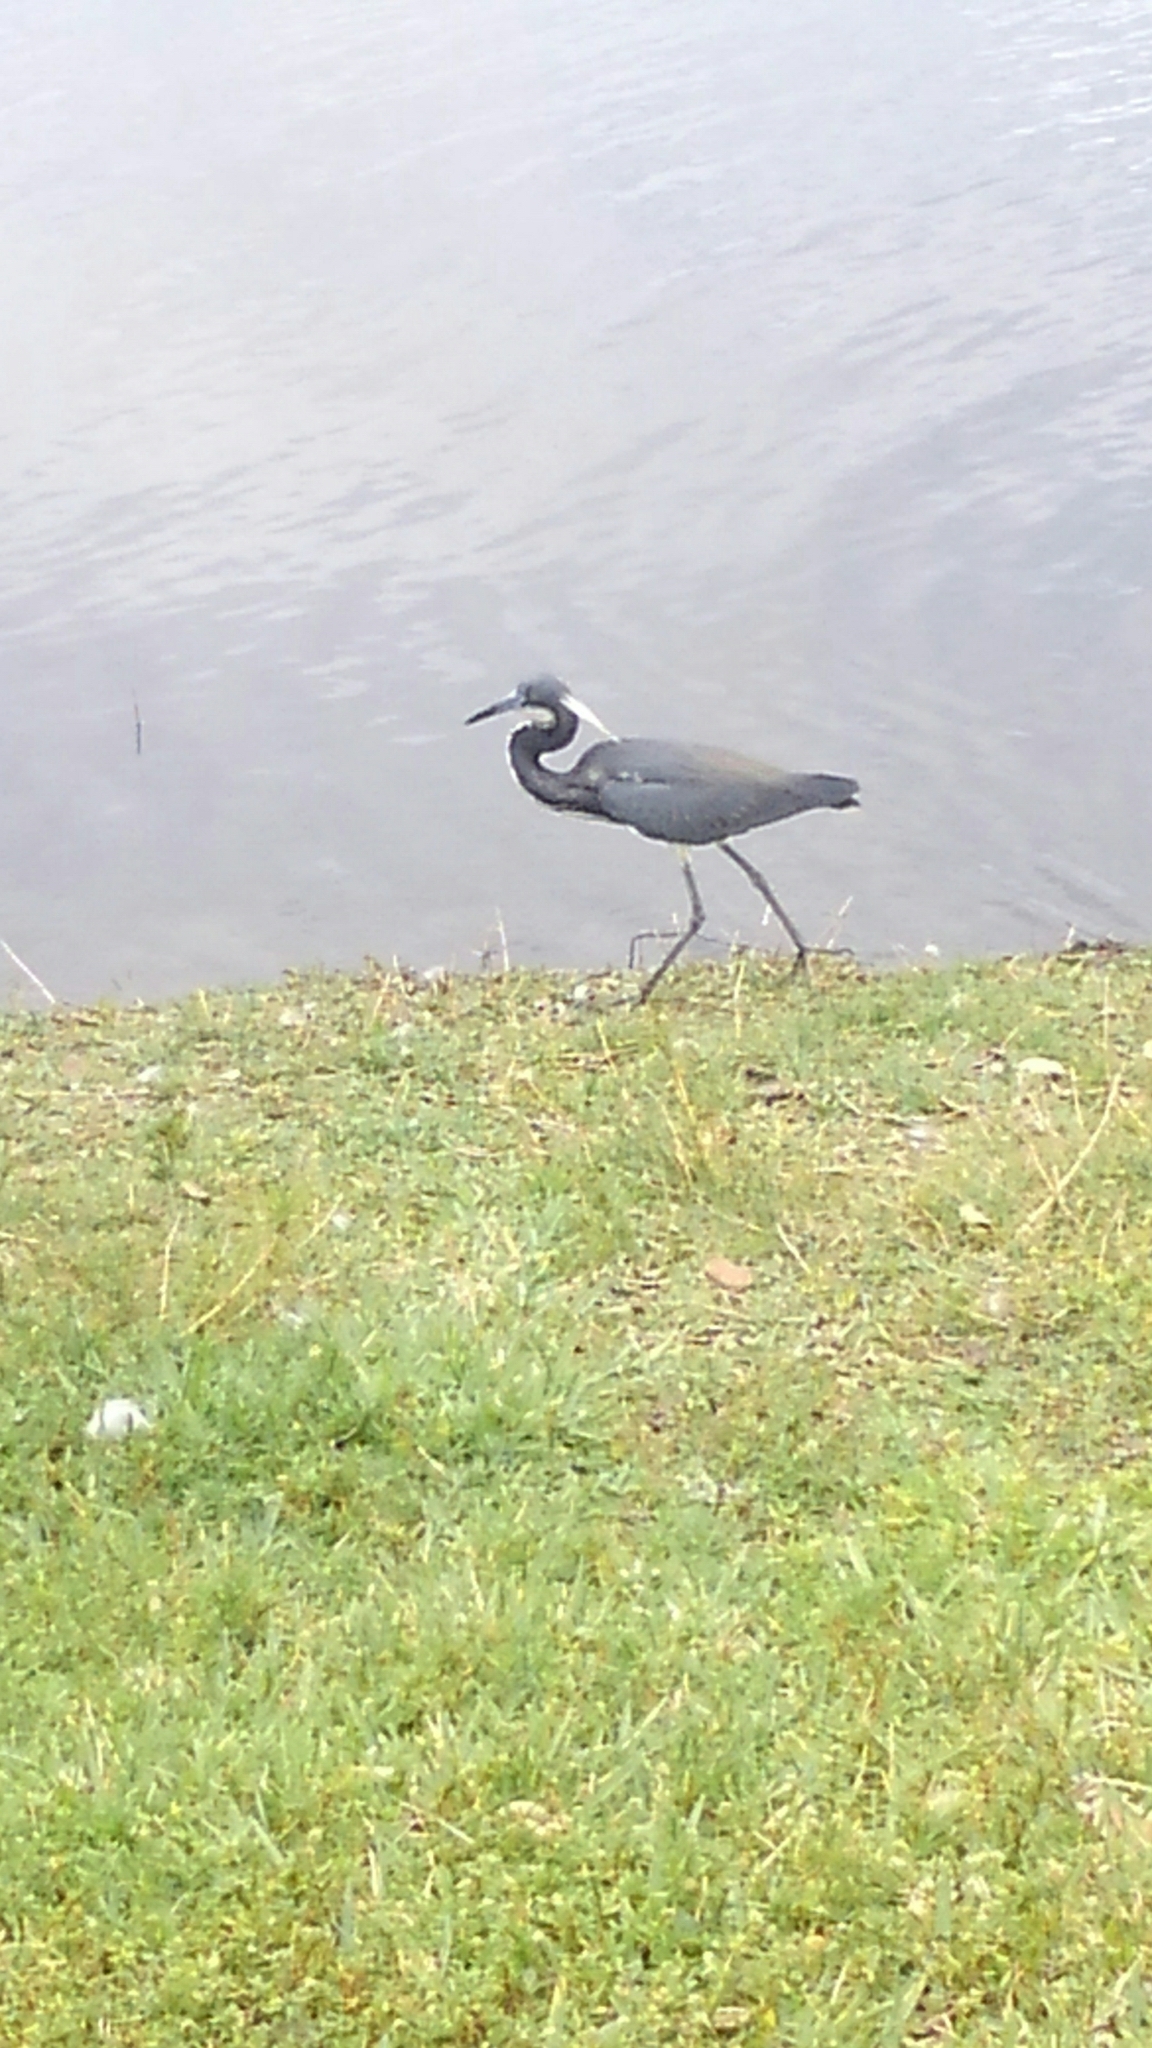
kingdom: Animalia
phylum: Chordata
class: Aves
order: Pelecaniformes
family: Ardeidae
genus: Egretta
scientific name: Egretta tricolor
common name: Tricolored heron
